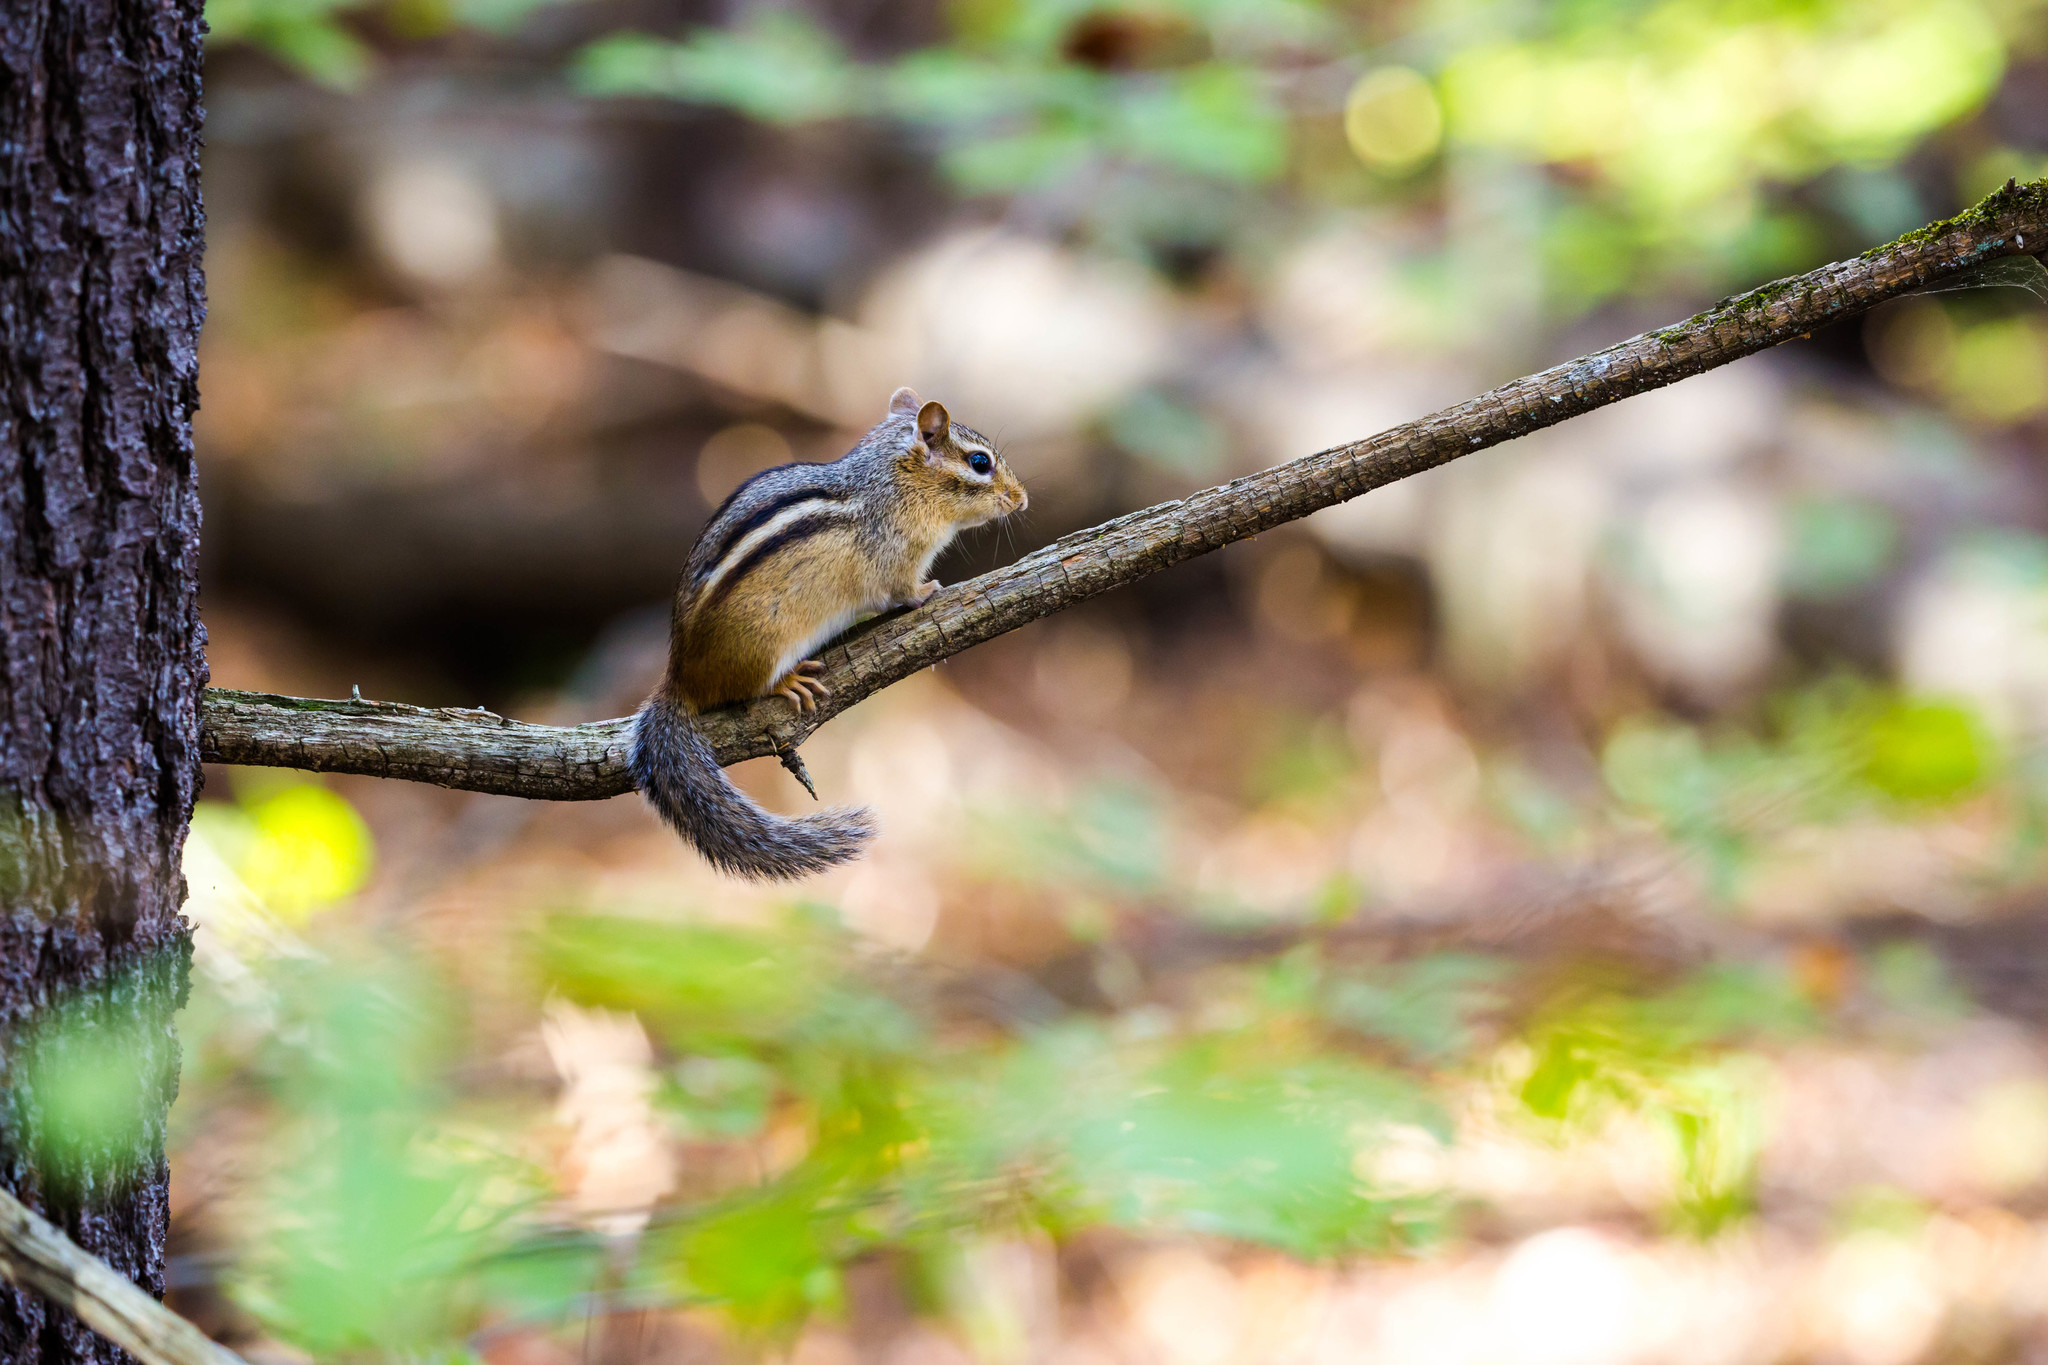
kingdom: Animalia
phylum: Chordata
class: Mammalia
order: Rodentia
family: Sciuridae
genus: Tamias
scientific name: Tamias striatus
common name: Eastern chipmunk
